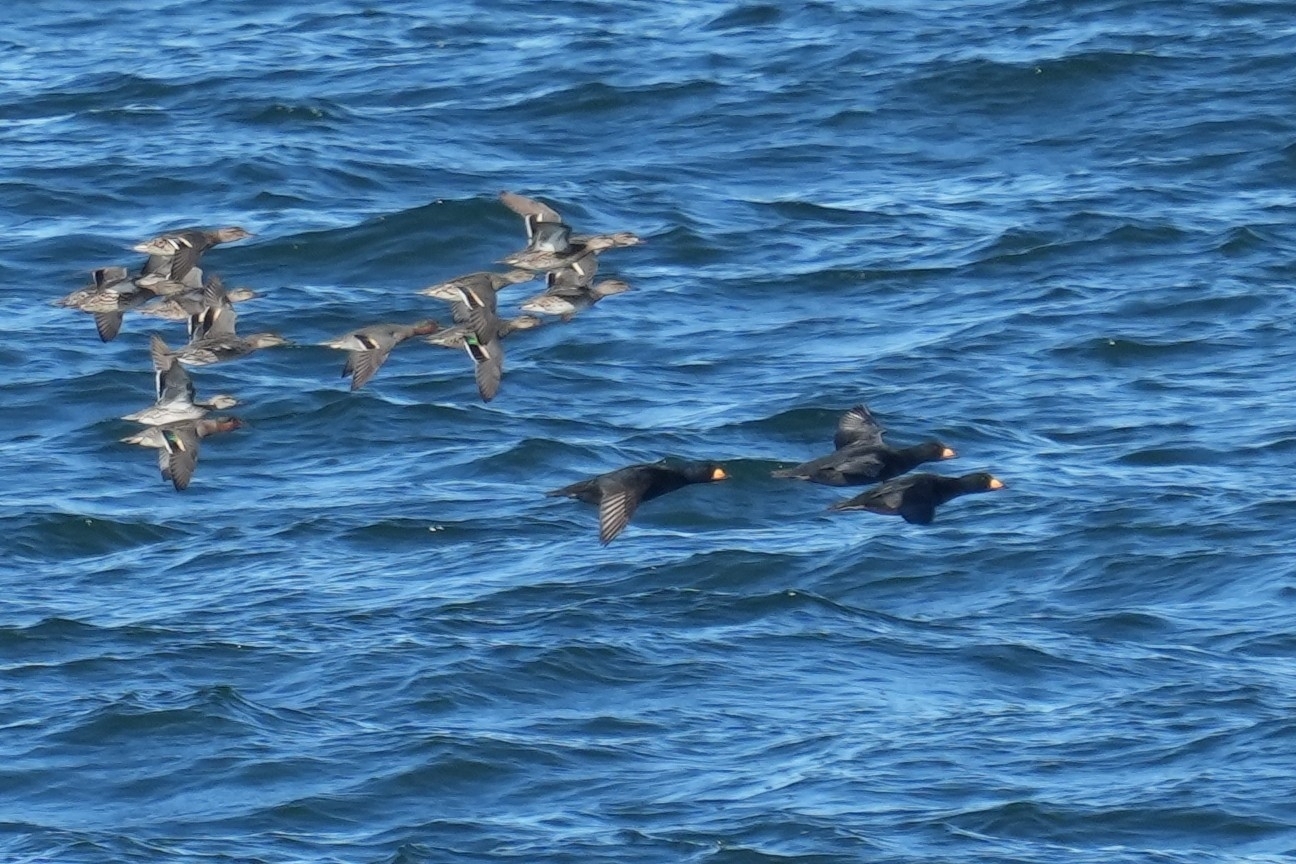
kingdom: Animalia
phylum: Chordata
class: Aves
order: Anseriformes
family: Anatidae
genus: Melanitta
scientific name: Melanitta americana
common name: Black scoter
